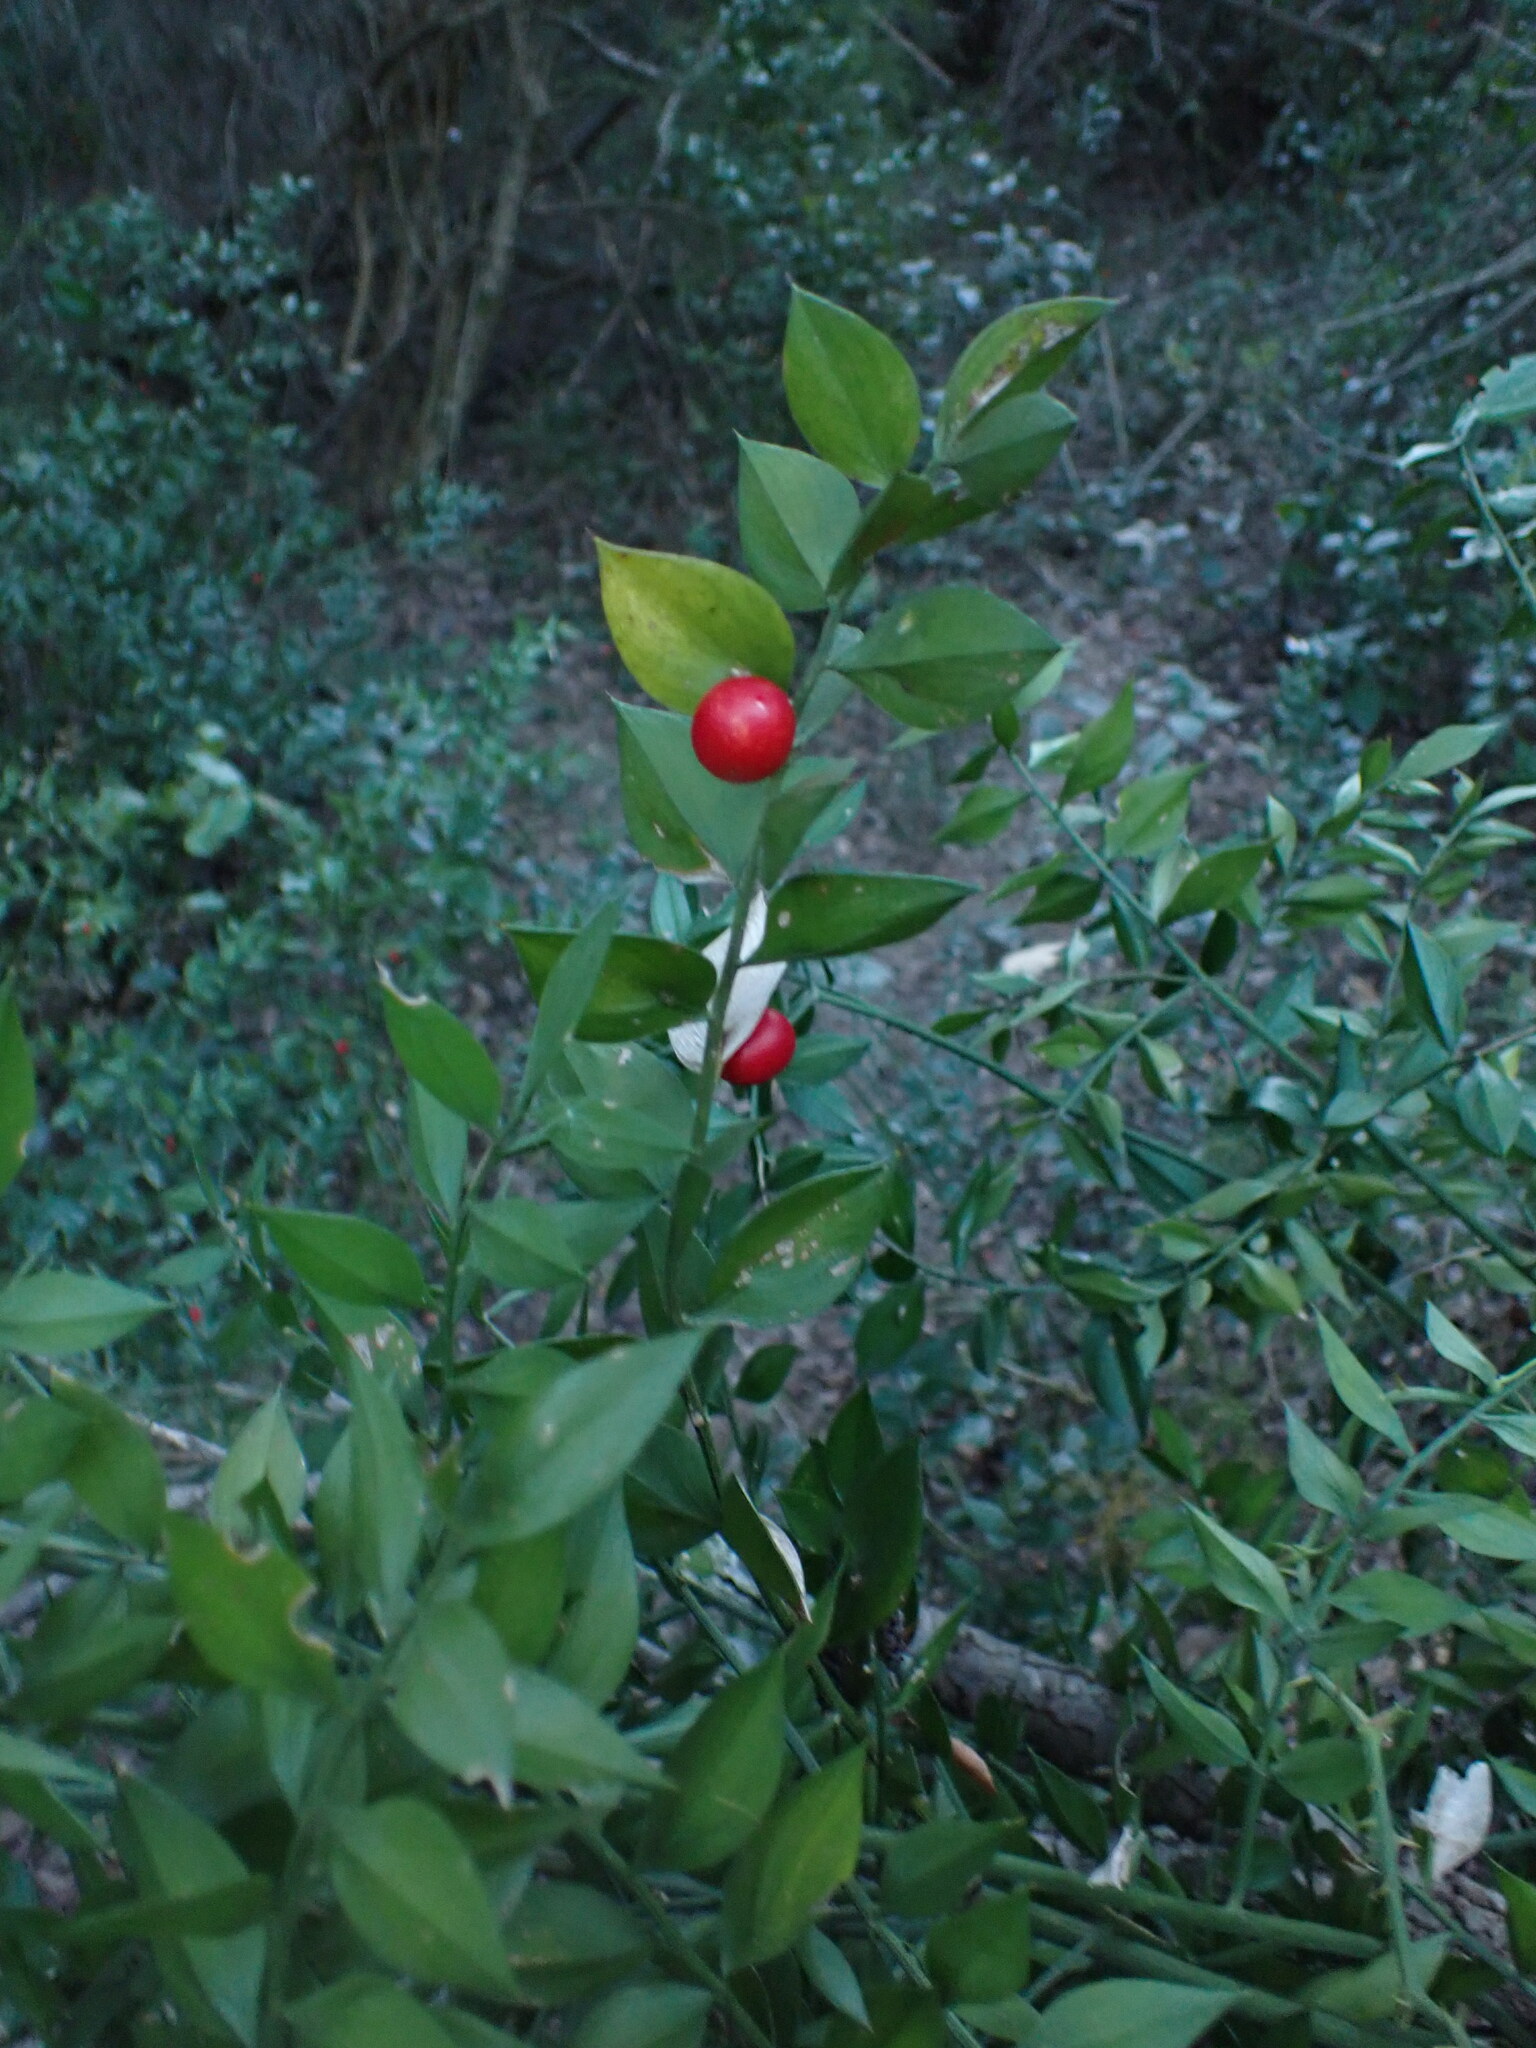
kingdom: Plantae
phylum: Tracheophyta
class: Liliopsida
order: Asparagales
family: Asparagaceae
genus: Ruscus
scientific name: Ruscus aculeatus
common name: Butcher's-broom
